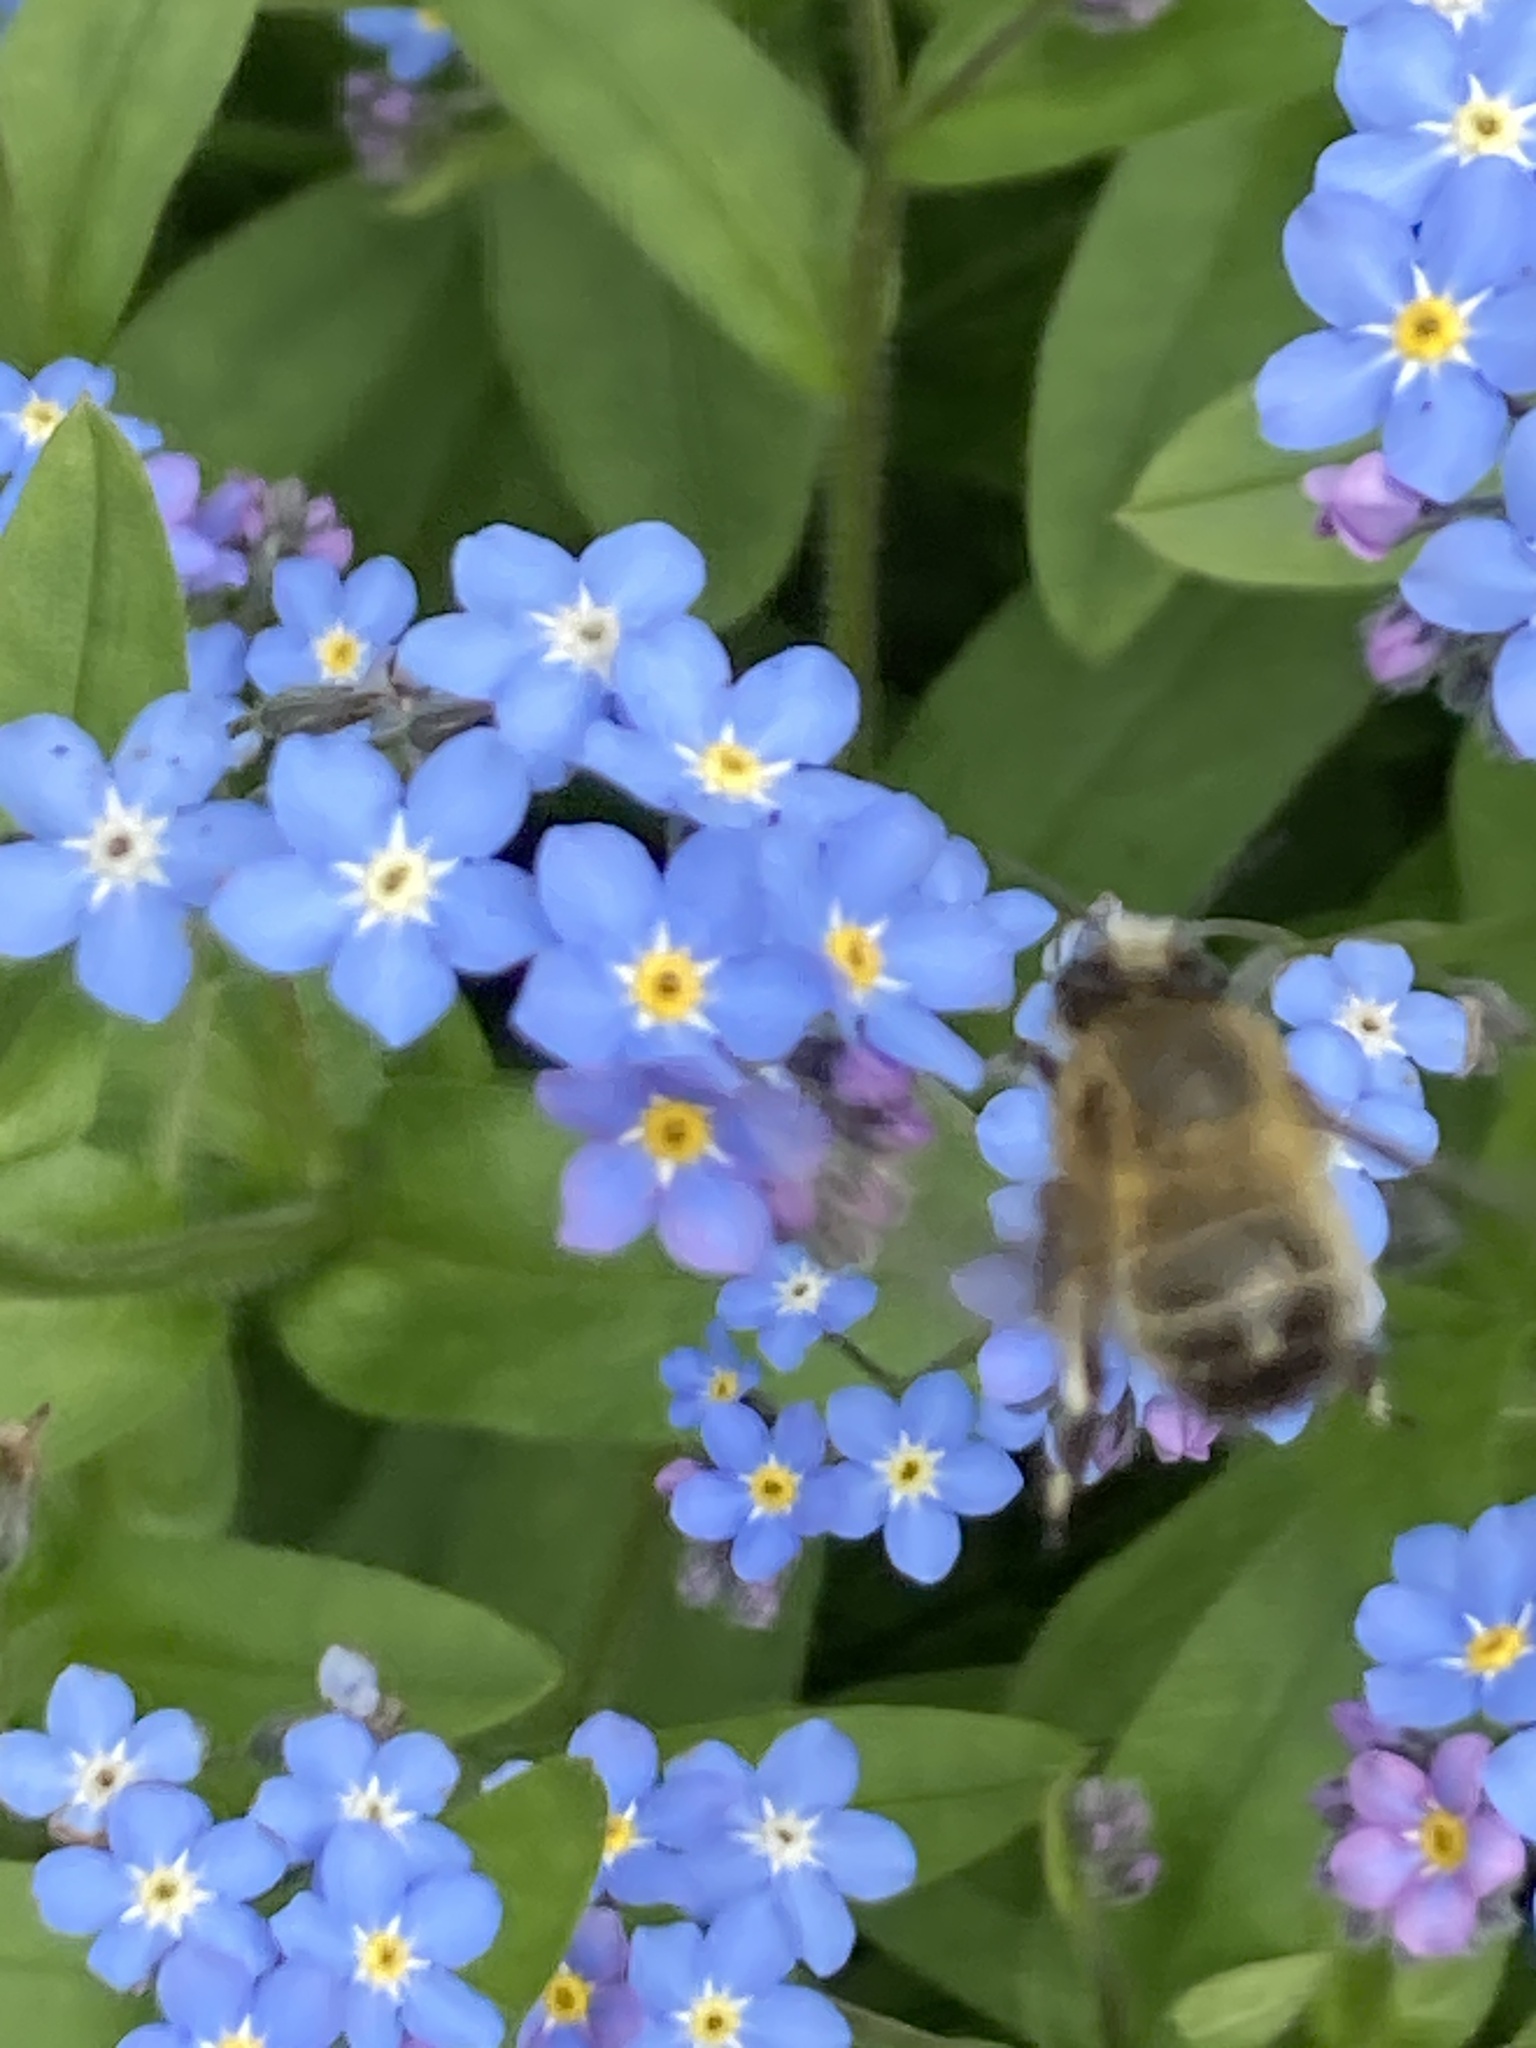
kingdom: Animalia
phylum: Arthropoda
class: Insecta
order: Hymenoptera
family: Apidae
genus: Anthophora
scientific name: Anthophora plumipes
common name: Hairy-footed flower bee
